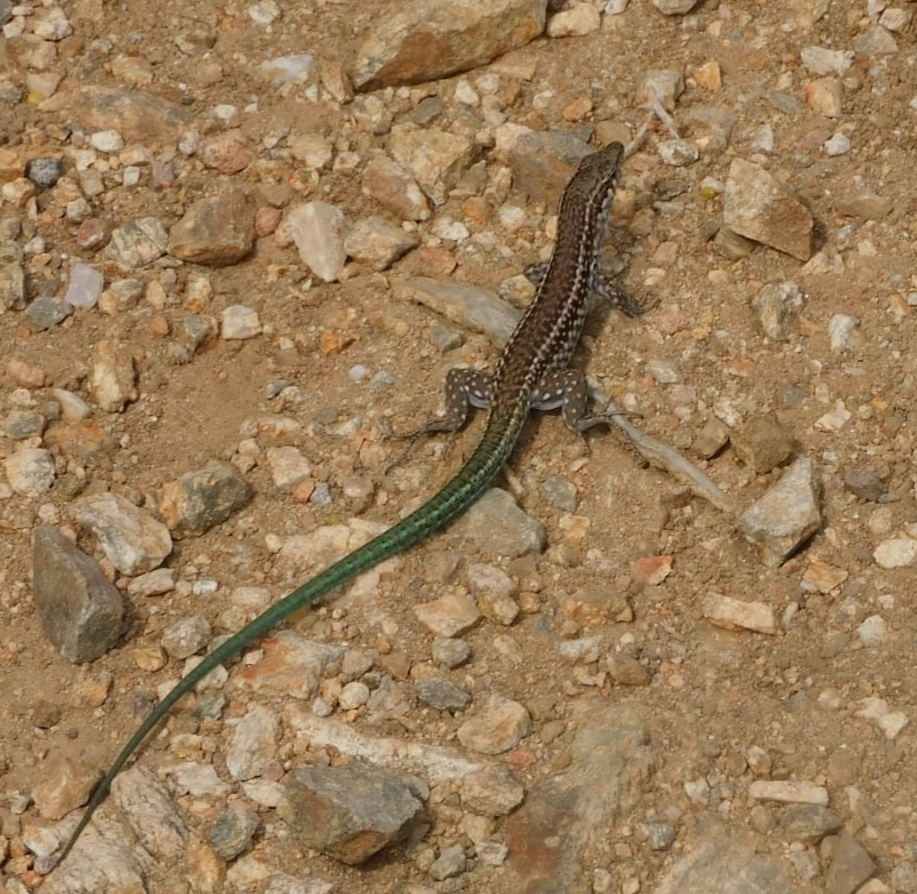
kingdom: Animalia
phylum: Chordata
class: Squamata
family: Lacertidae
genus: Podarcis
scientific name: Podarcis tiliguerta
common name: Tyrrhenian wall lizard
